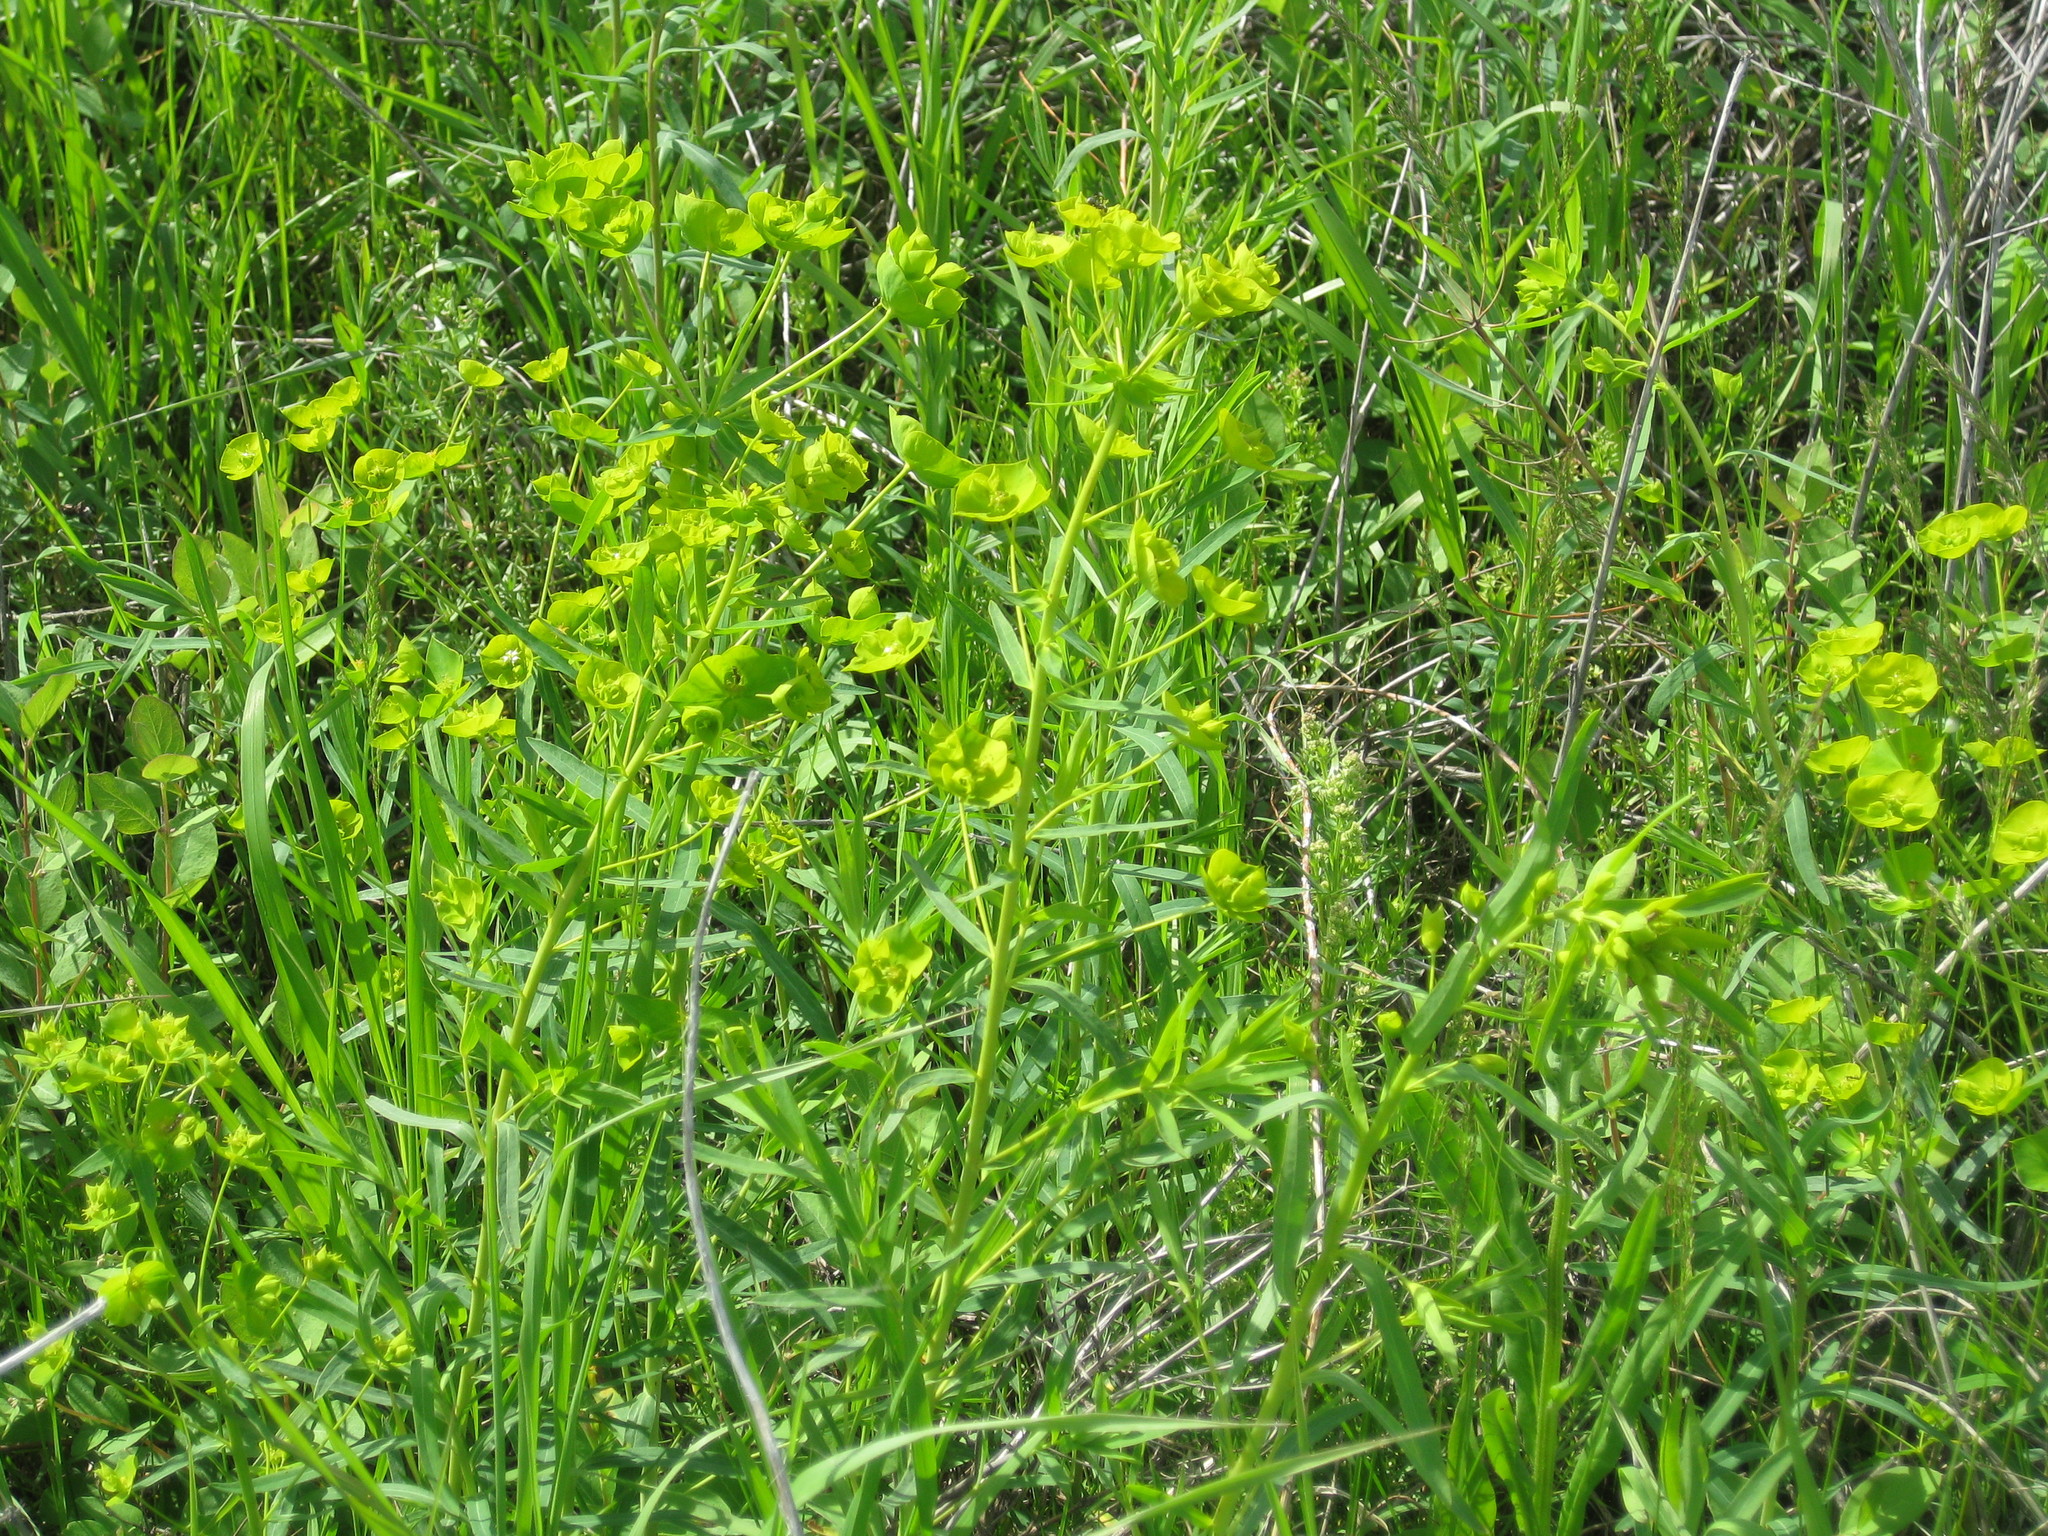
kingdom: Plantae
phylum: Tracheophyta
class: Magnoliopsida
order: Malpighiales
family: Euphorbiaceae
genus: Euphorbia
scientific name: Euphorbia virgata
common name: Leafy spurge
